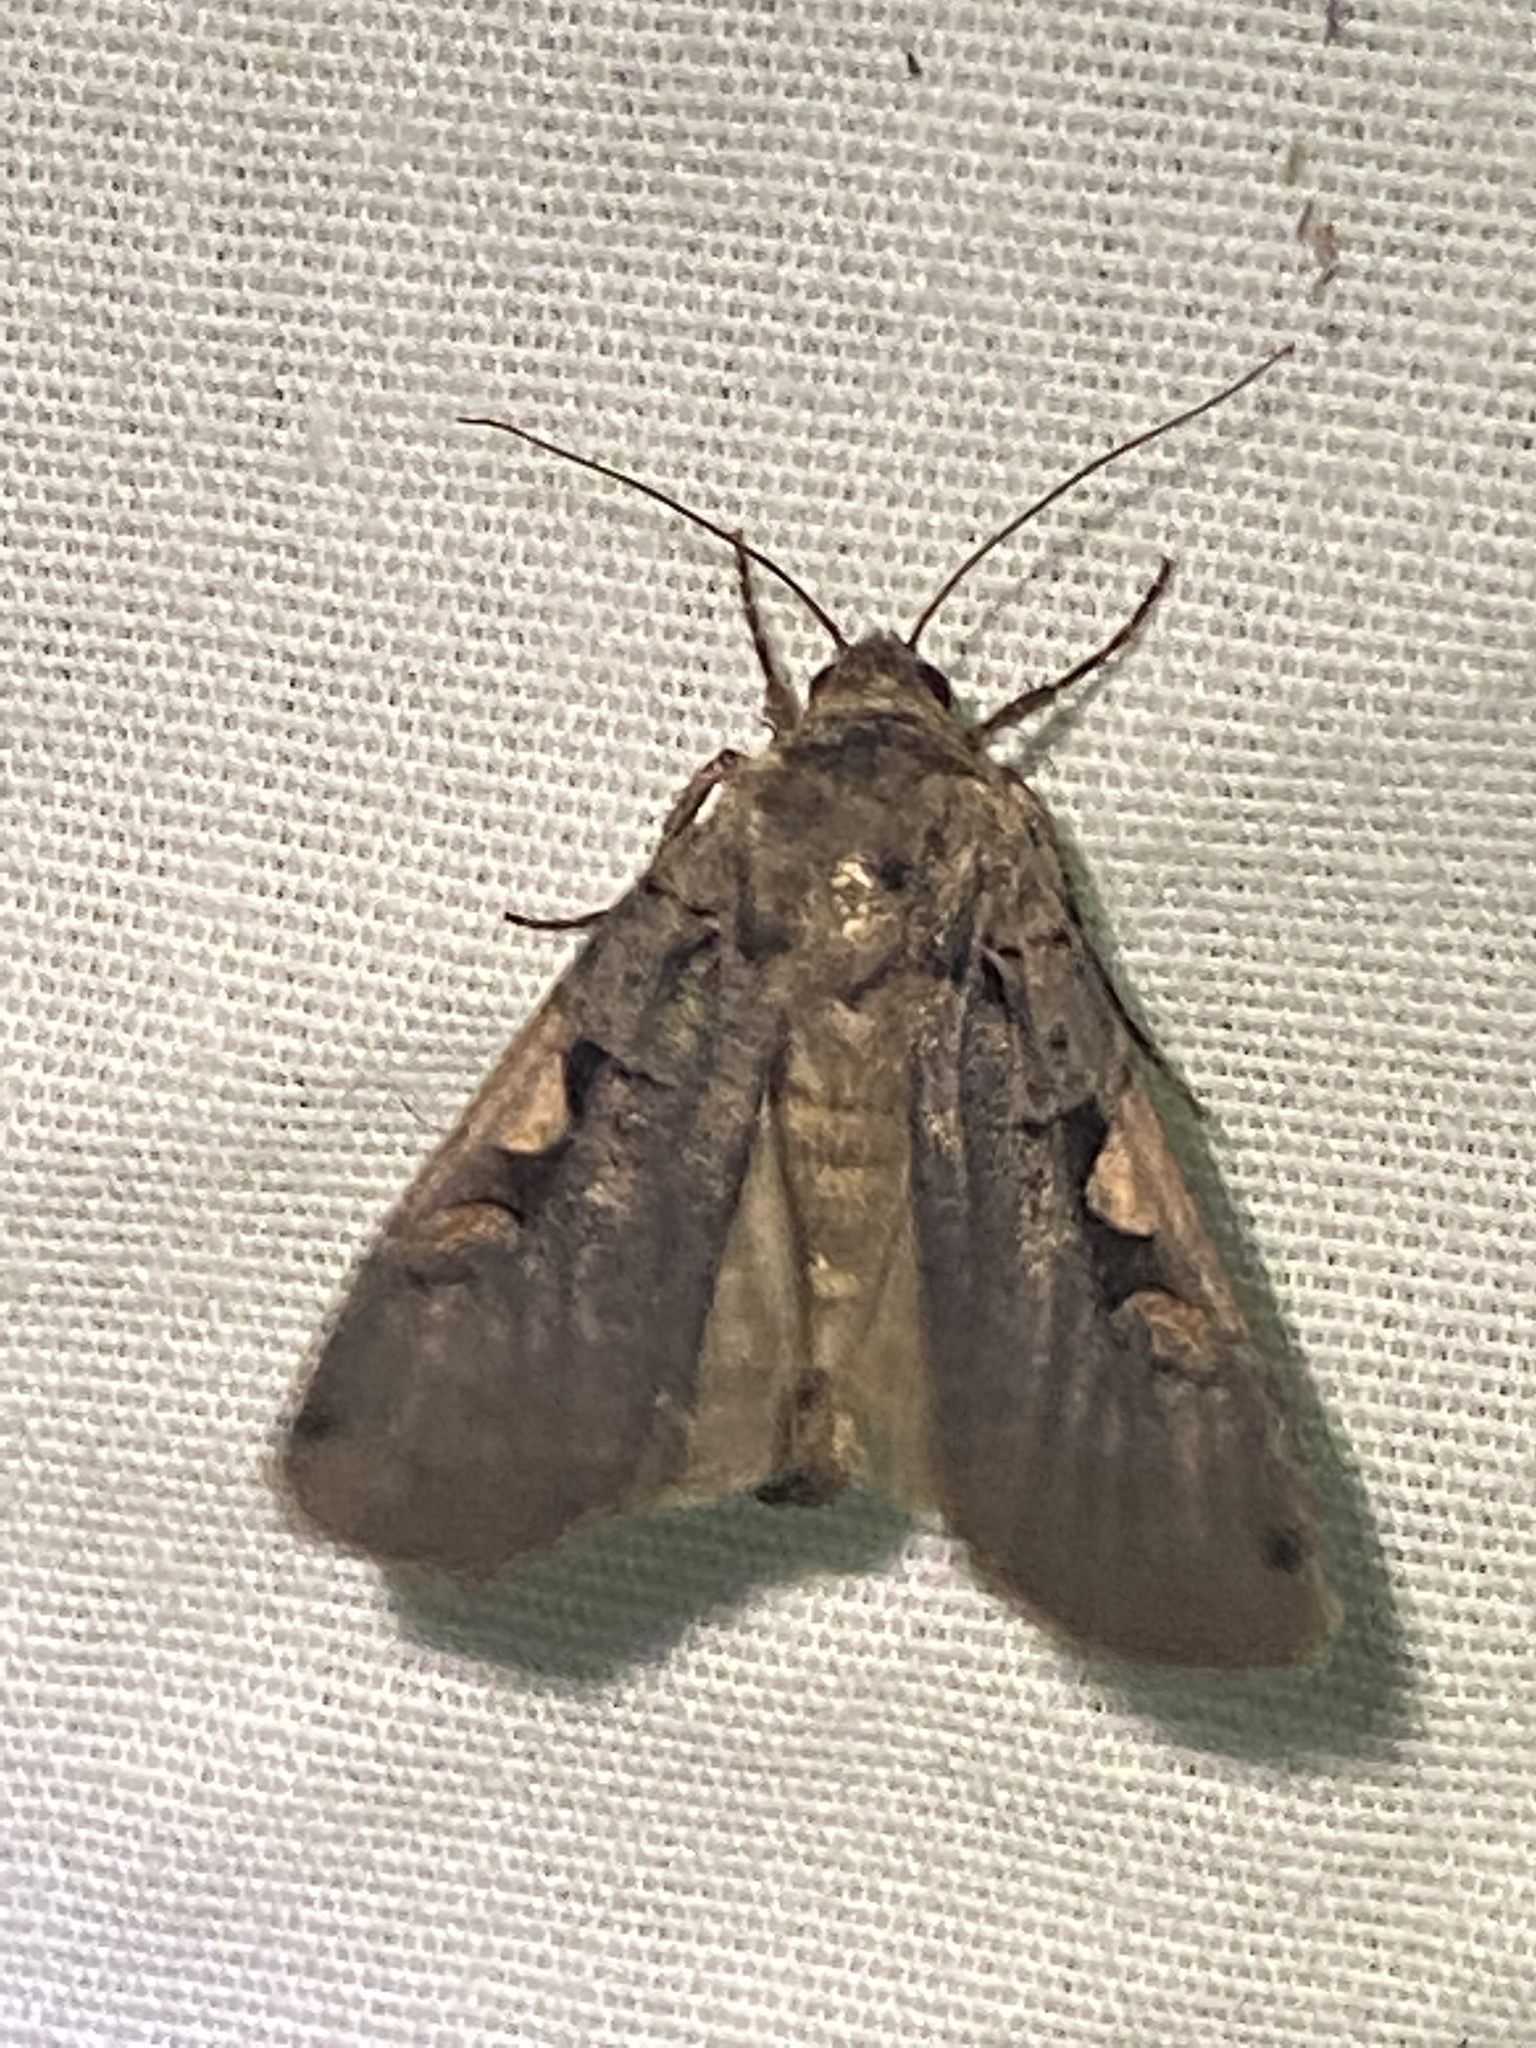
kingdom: Animalia
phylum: Arthropoda
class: Insecta
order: Lepidoptera
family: Noctuidae
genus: Xestia
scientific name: Xestia dolosa
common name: Cutworm moth
